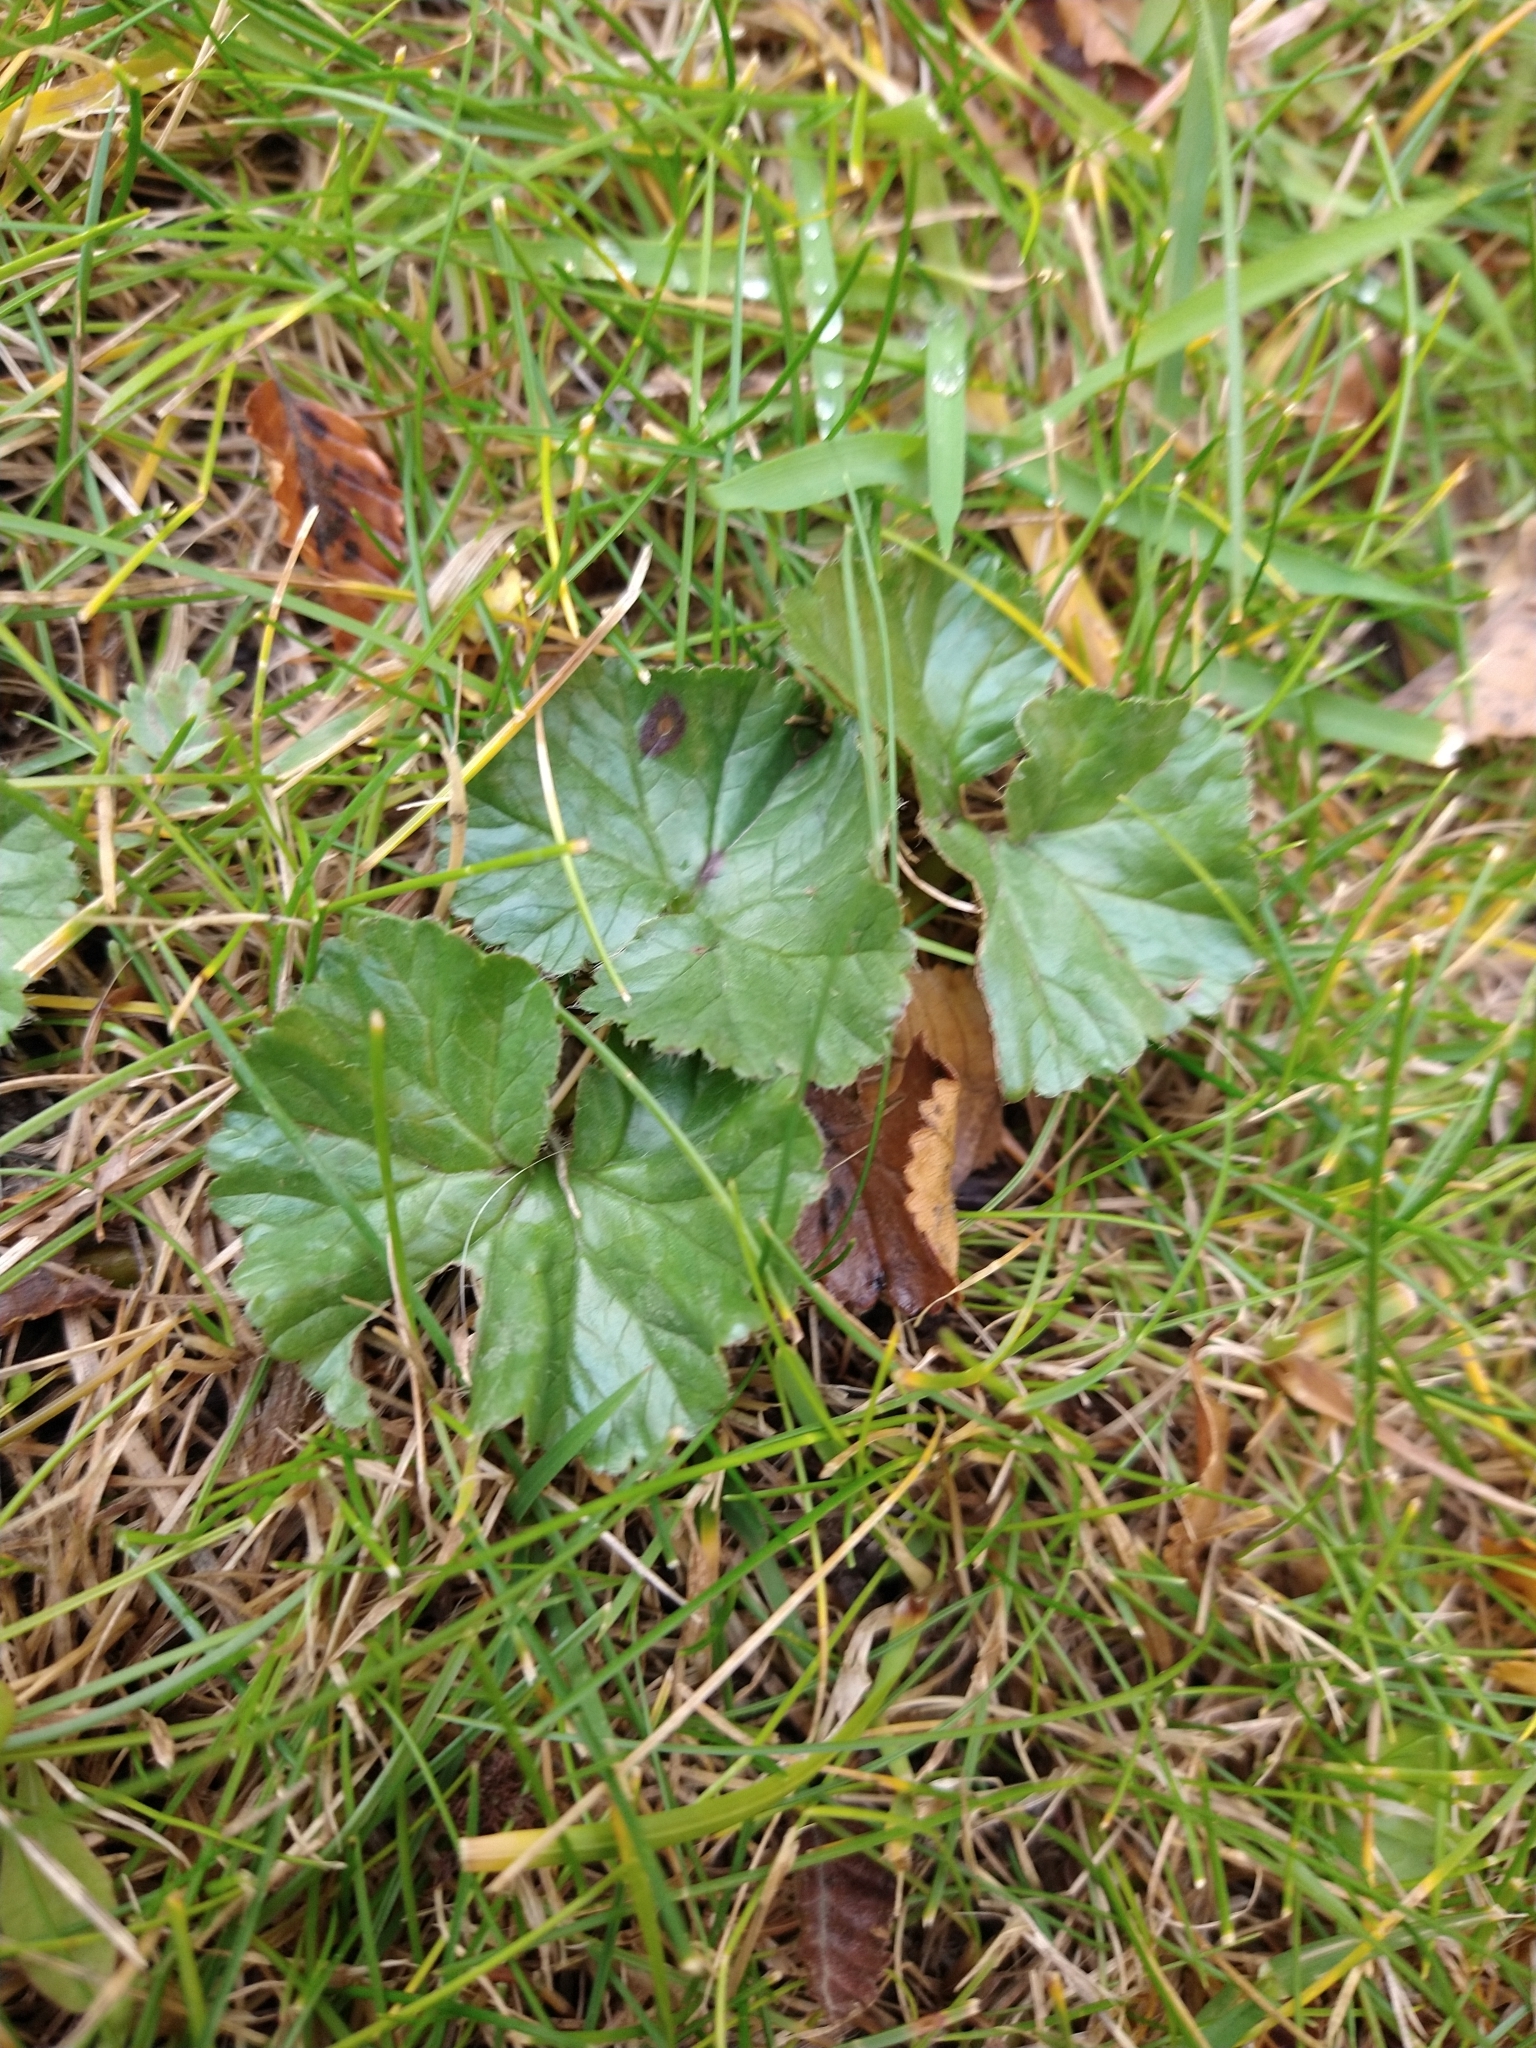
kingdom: Plantae
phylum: Tracheophyta
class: Magnoliopsida
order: Gunnerales
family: Gunneraceae
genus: Gunnera
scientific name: Gunnera magellanica
